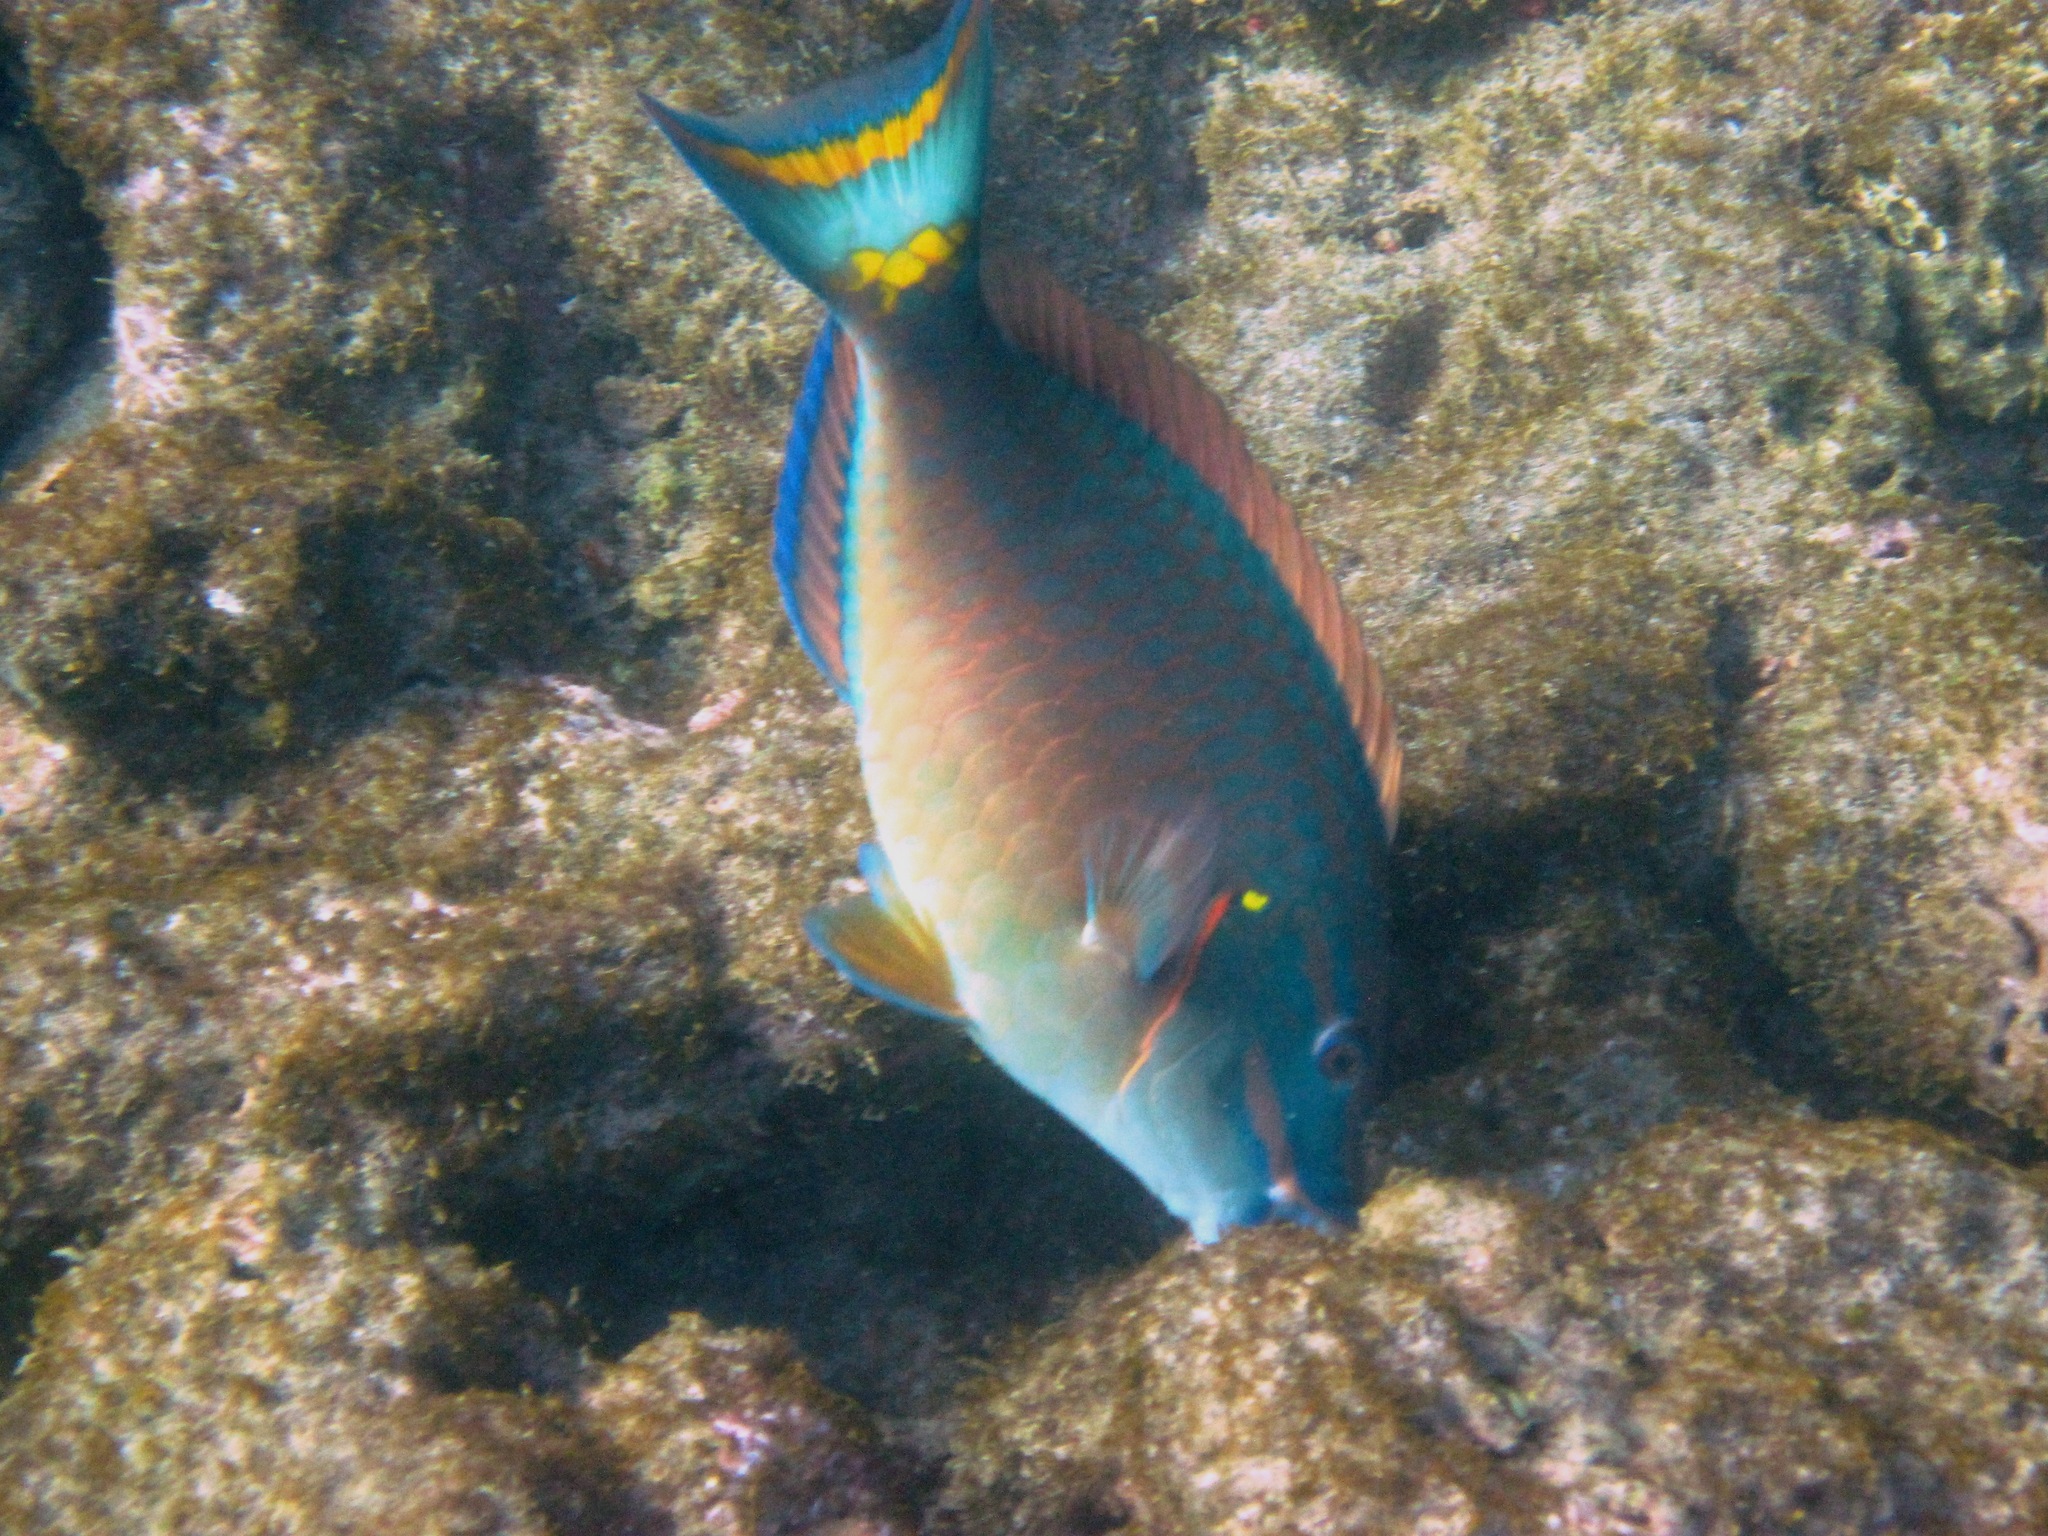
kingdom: Animalia
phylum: Chordata
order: Perciformes
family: Scaridae
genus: Sparisoma
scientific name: Sparisoma viride
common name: Stoplight parrotfish
